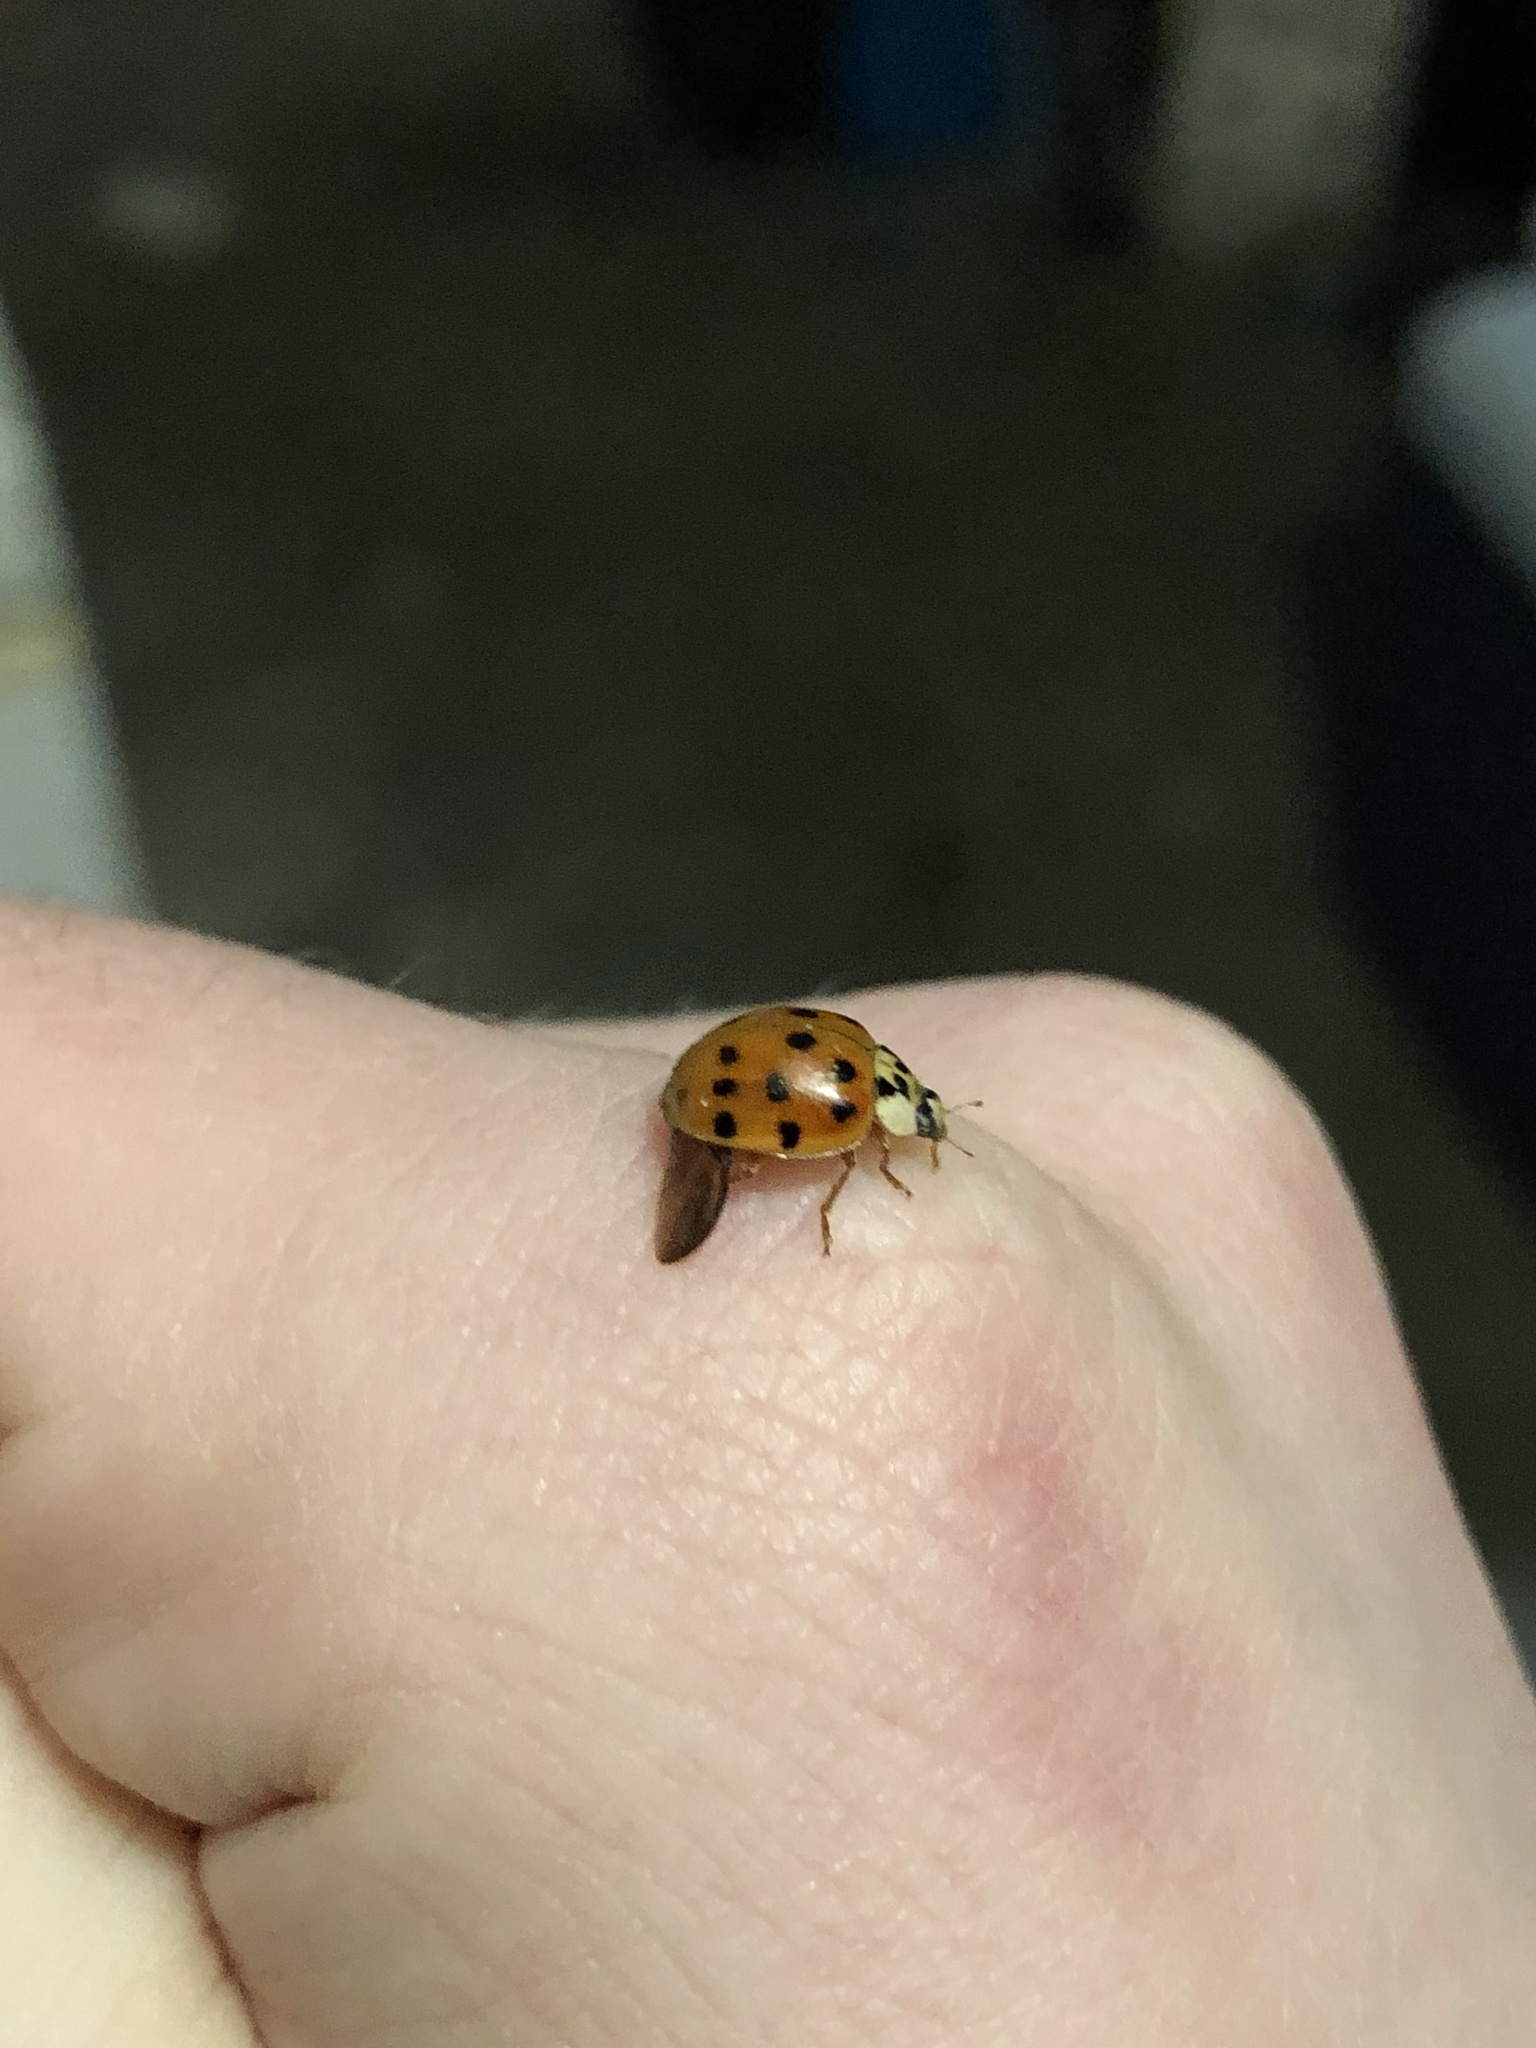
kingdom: Animalia
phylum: Arthropoda
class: Insecta
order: Coleoptera
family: Coccinellidae
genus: Harmonia
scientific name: Harmonia axyridis
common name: Harlequin ladybird
